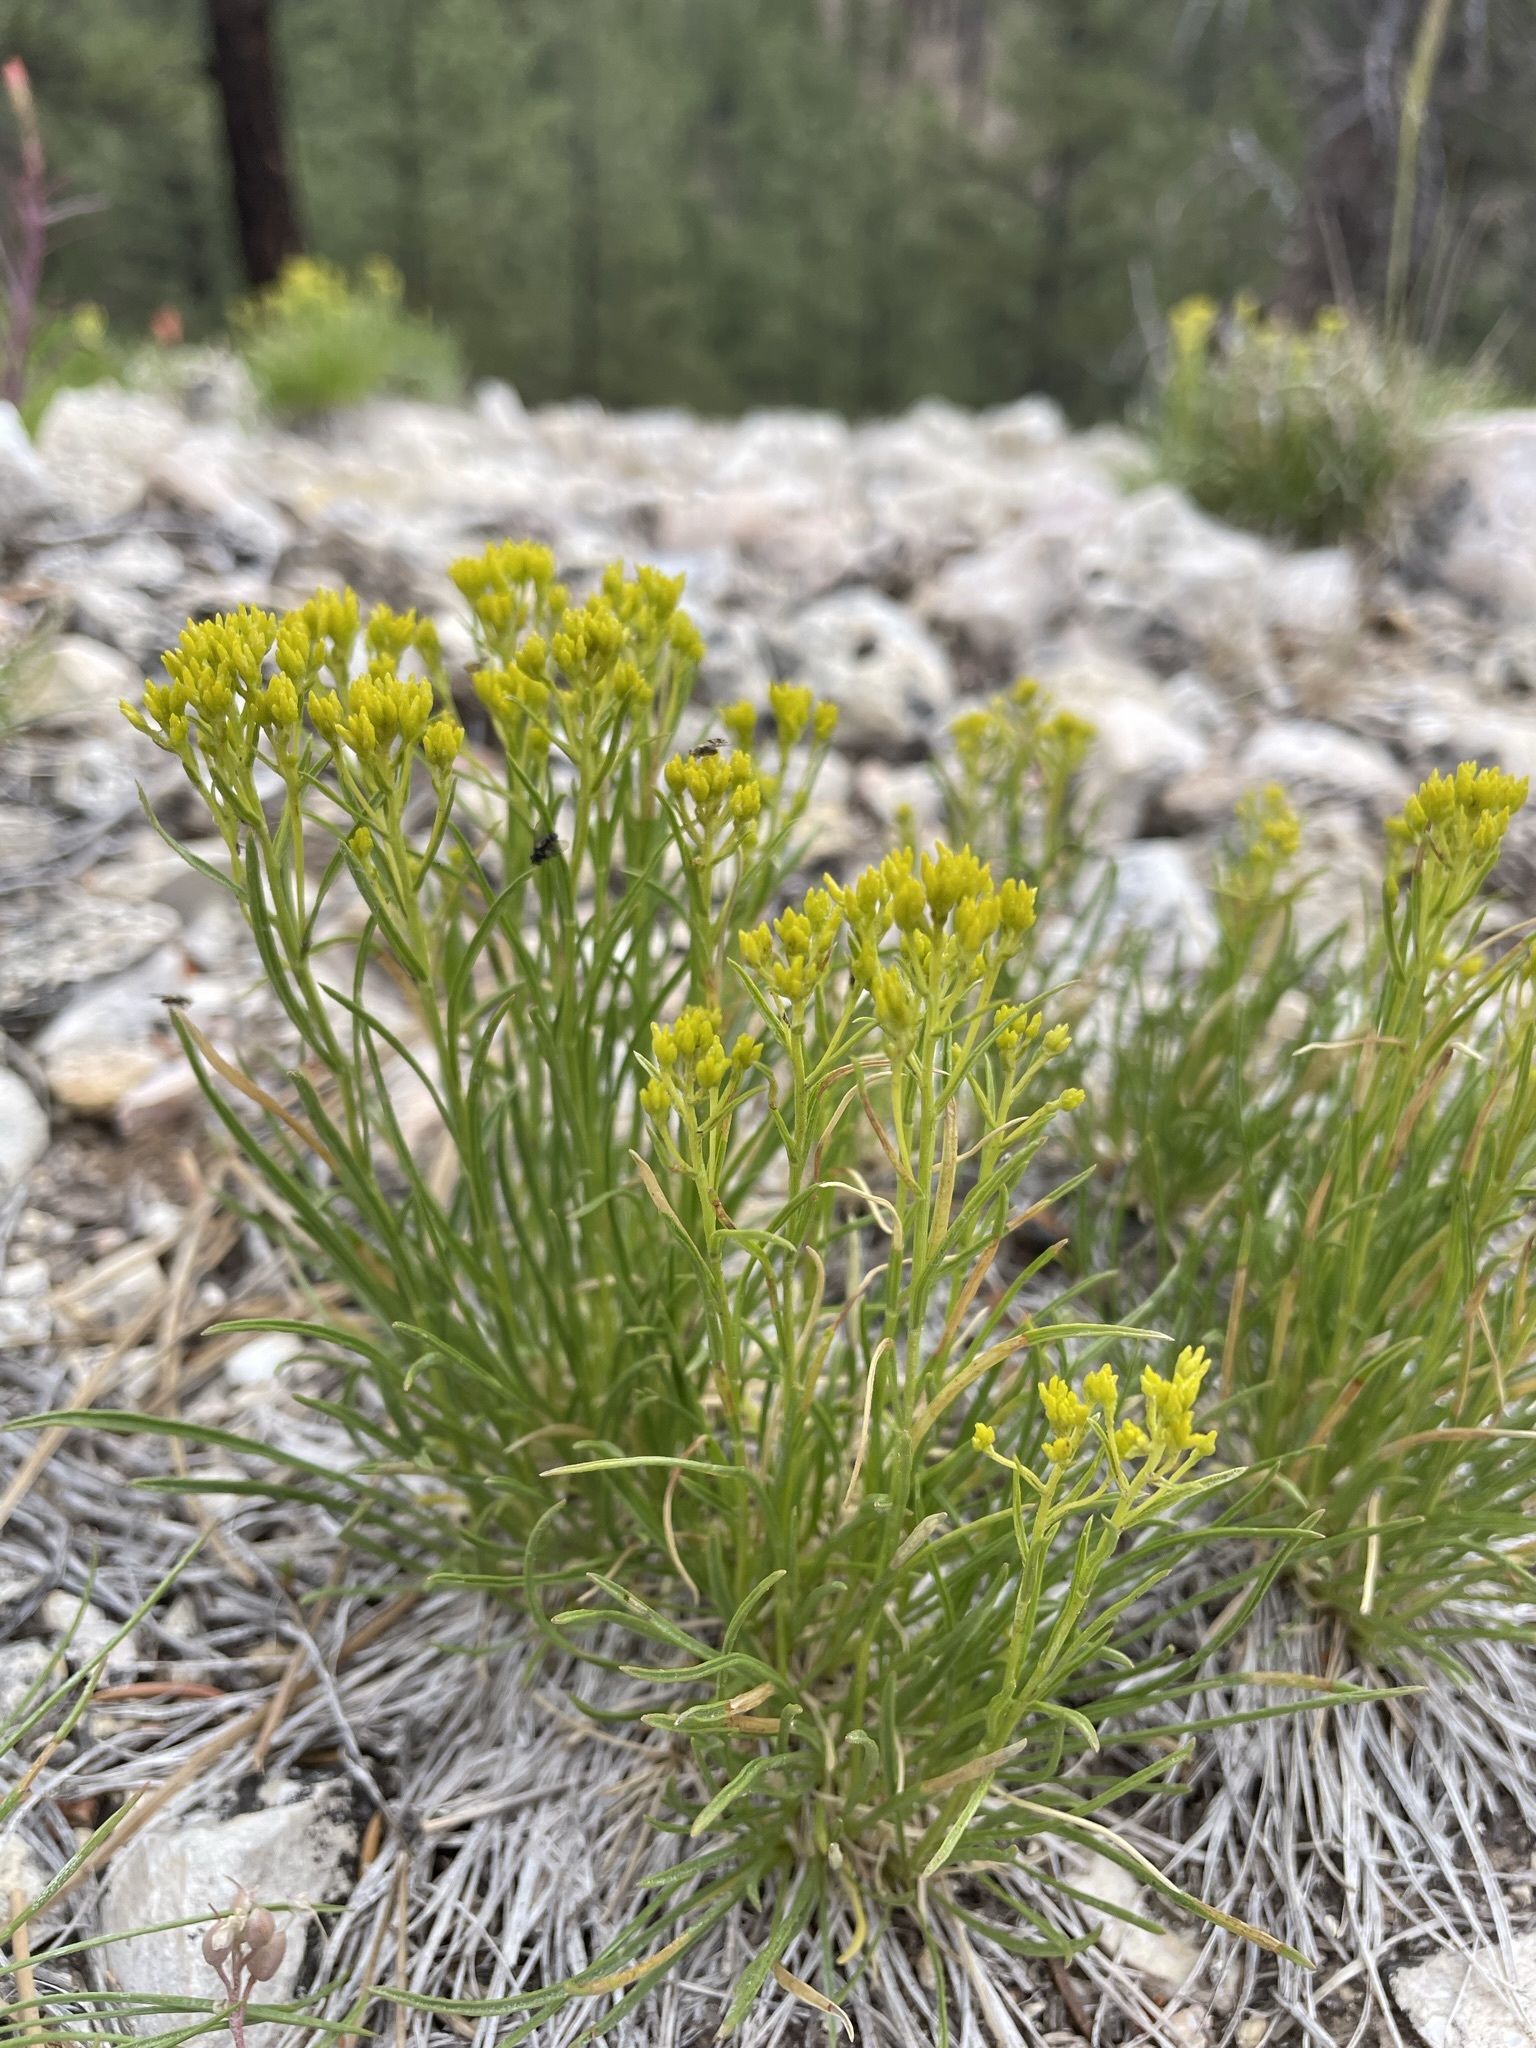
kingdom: Plantae
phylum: Tracheophyta
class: Magnoliopsida
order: Asterales
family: Asteraceae
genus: Petradoria
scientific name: Petradoria pumila
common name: Rock-goldenrod
